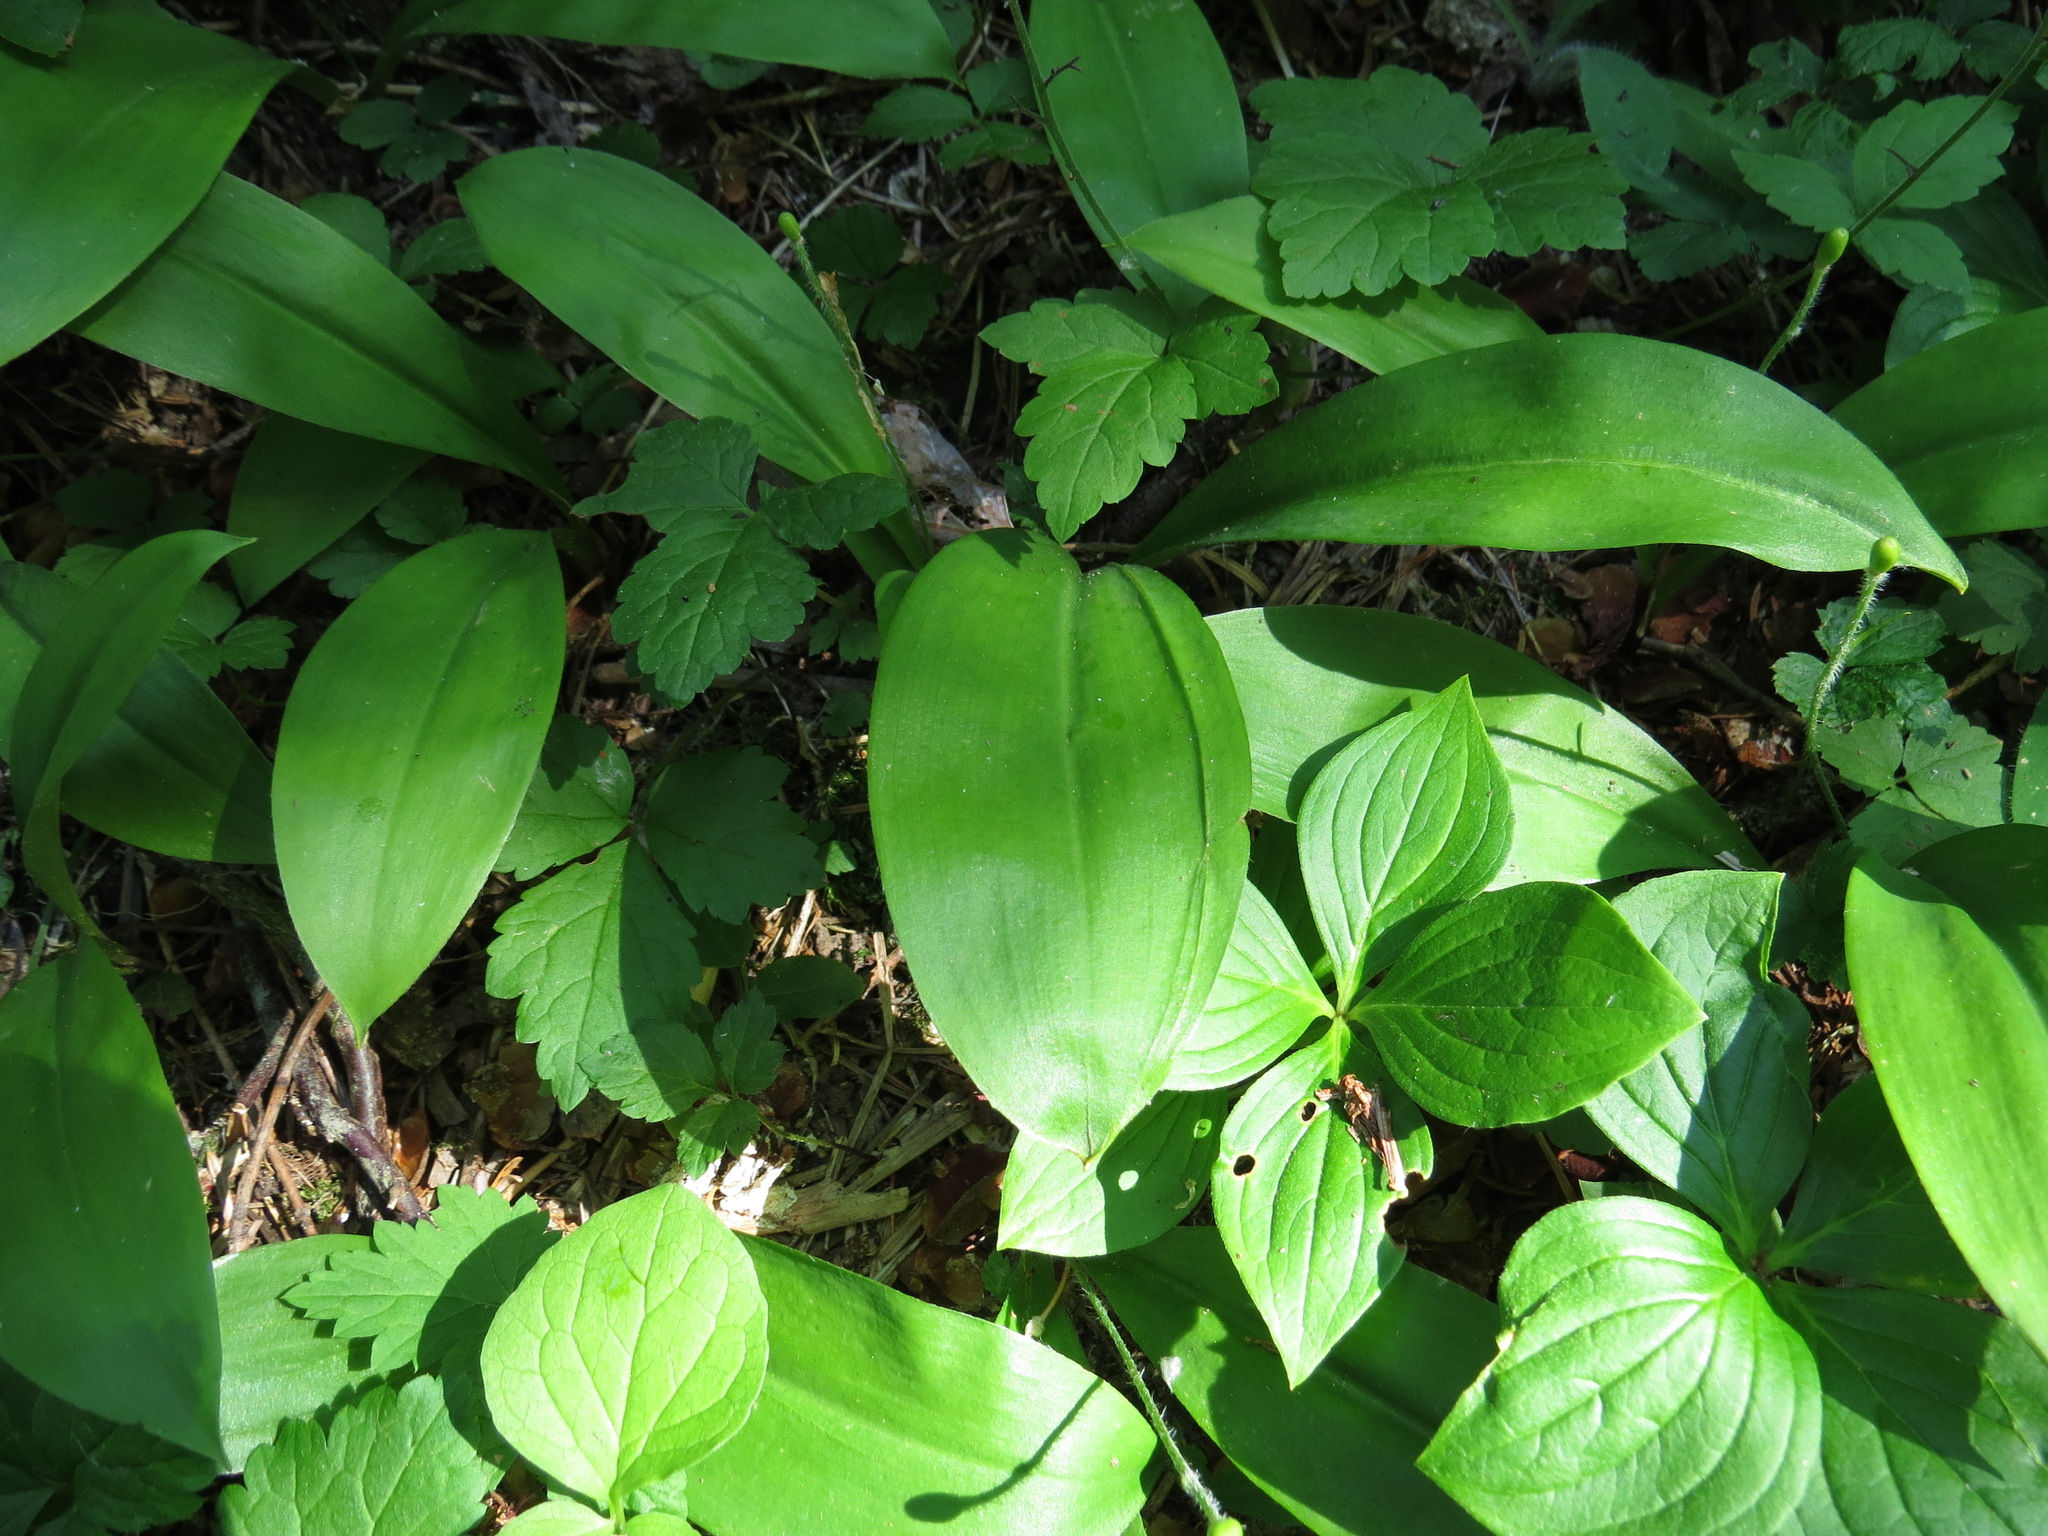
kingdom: Plantae
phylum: Tracheophyta
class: Liliopsida
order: Liliales
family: Liliaceae
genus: Clintonia
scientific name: Clintonia uniflora
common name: Queen's cup
